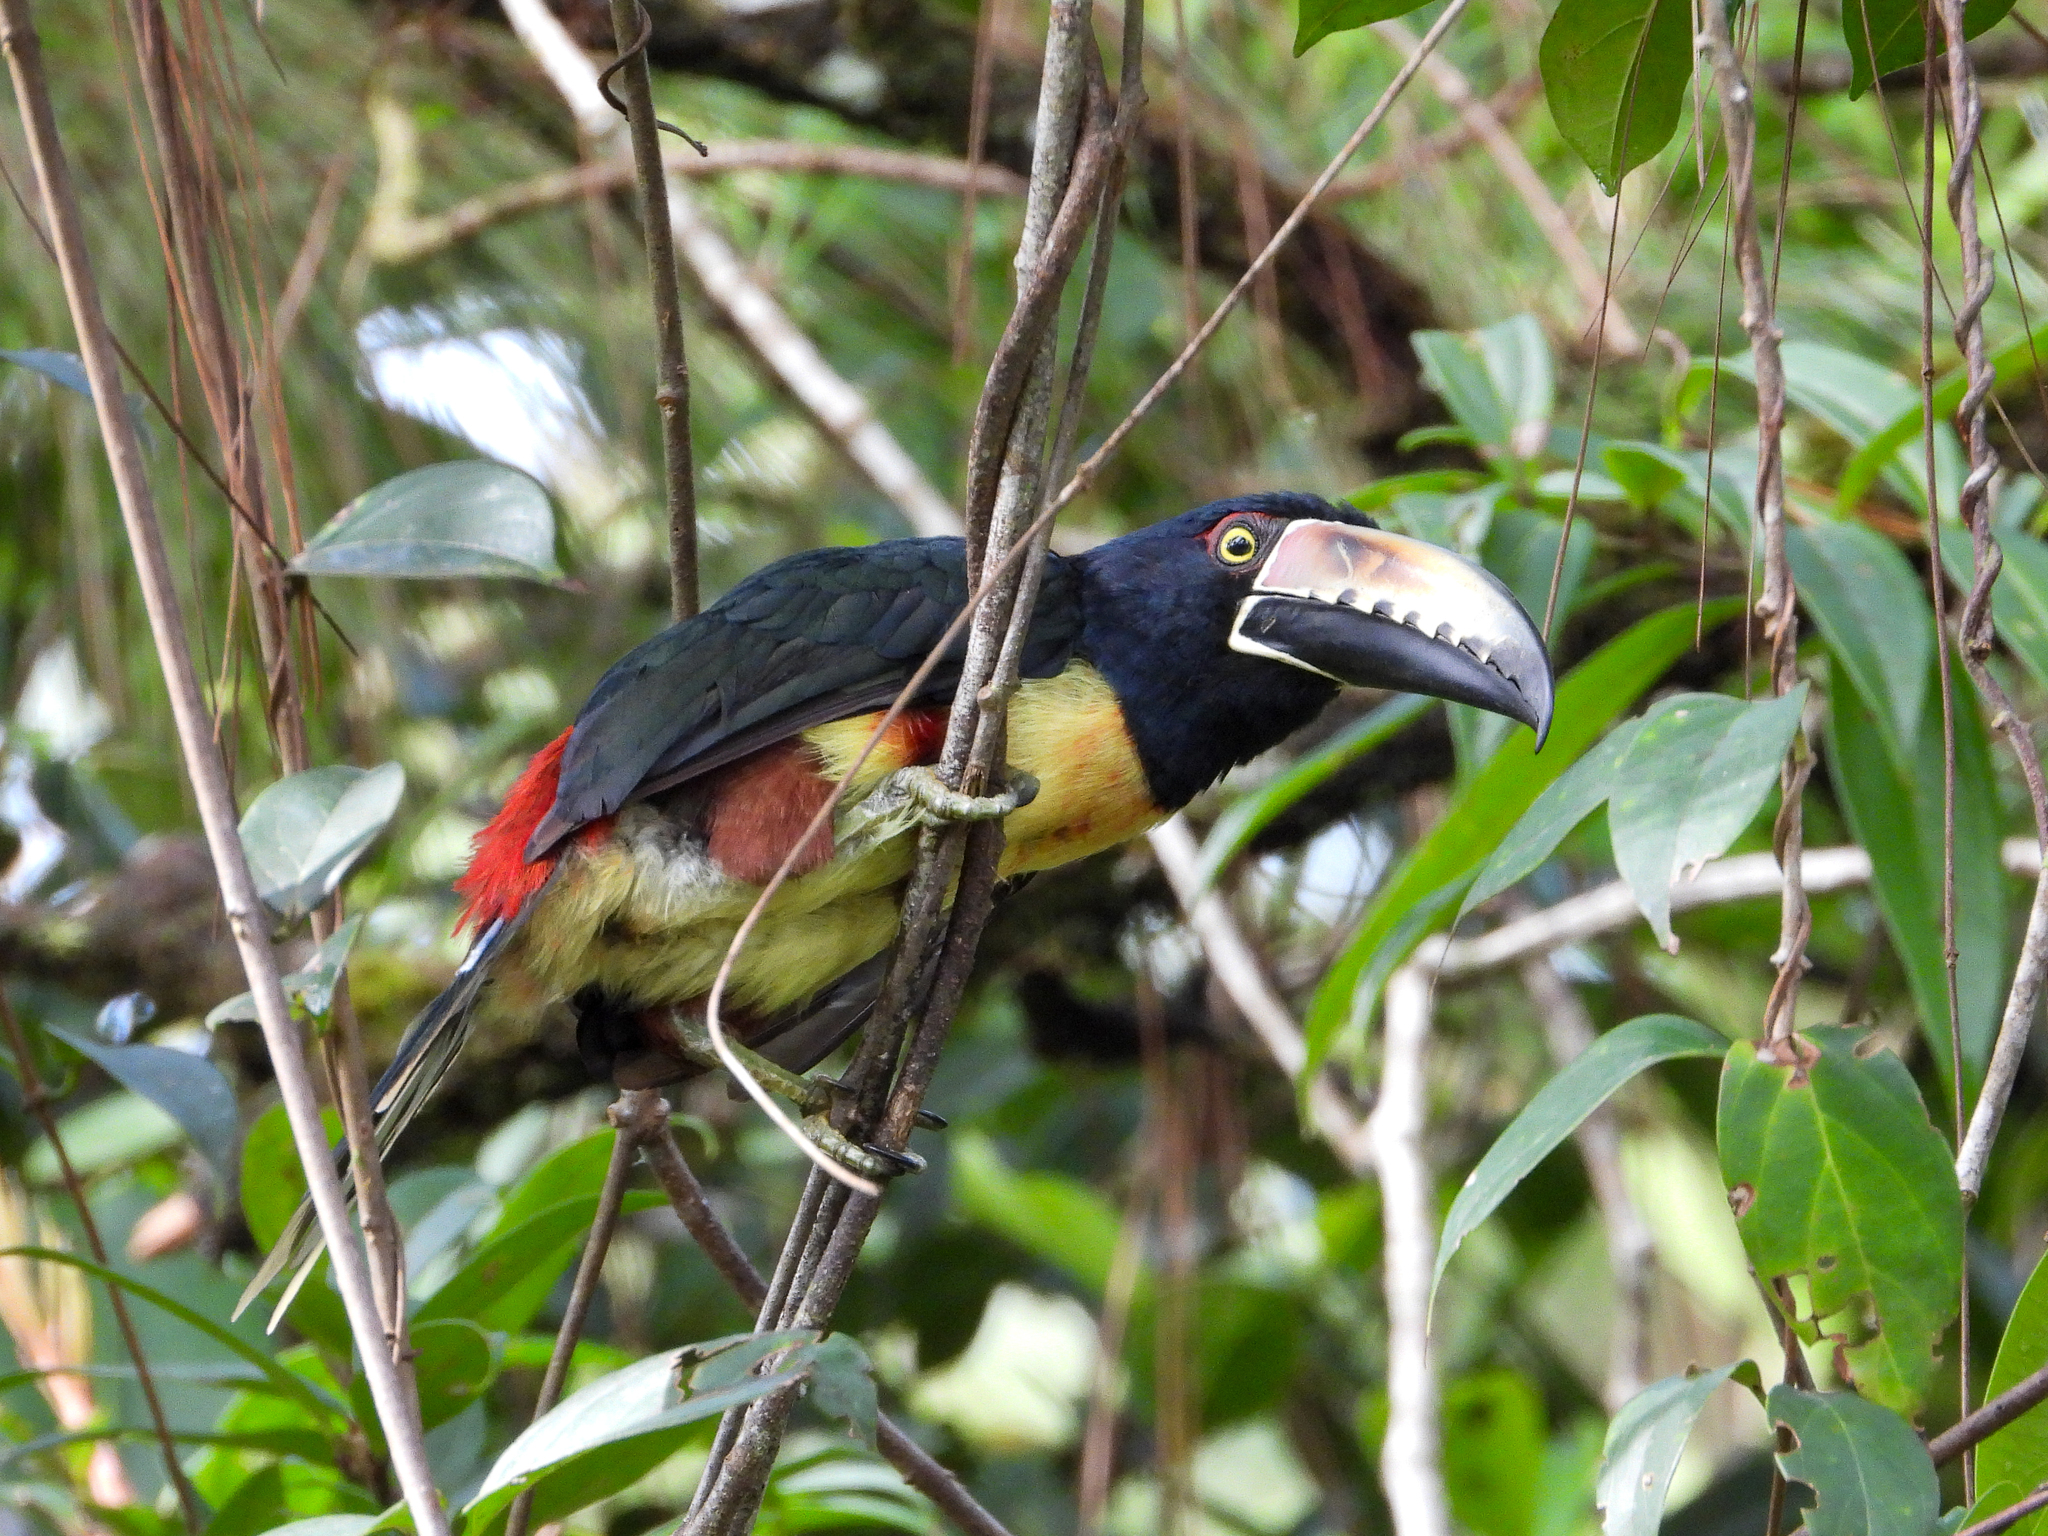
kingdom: Animalia
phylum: Chordata
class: Aves
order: Piciformes
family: Ramphastidae
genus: Pteroglossus
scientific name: Pteroglossus torquatus
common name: Collared aracari
